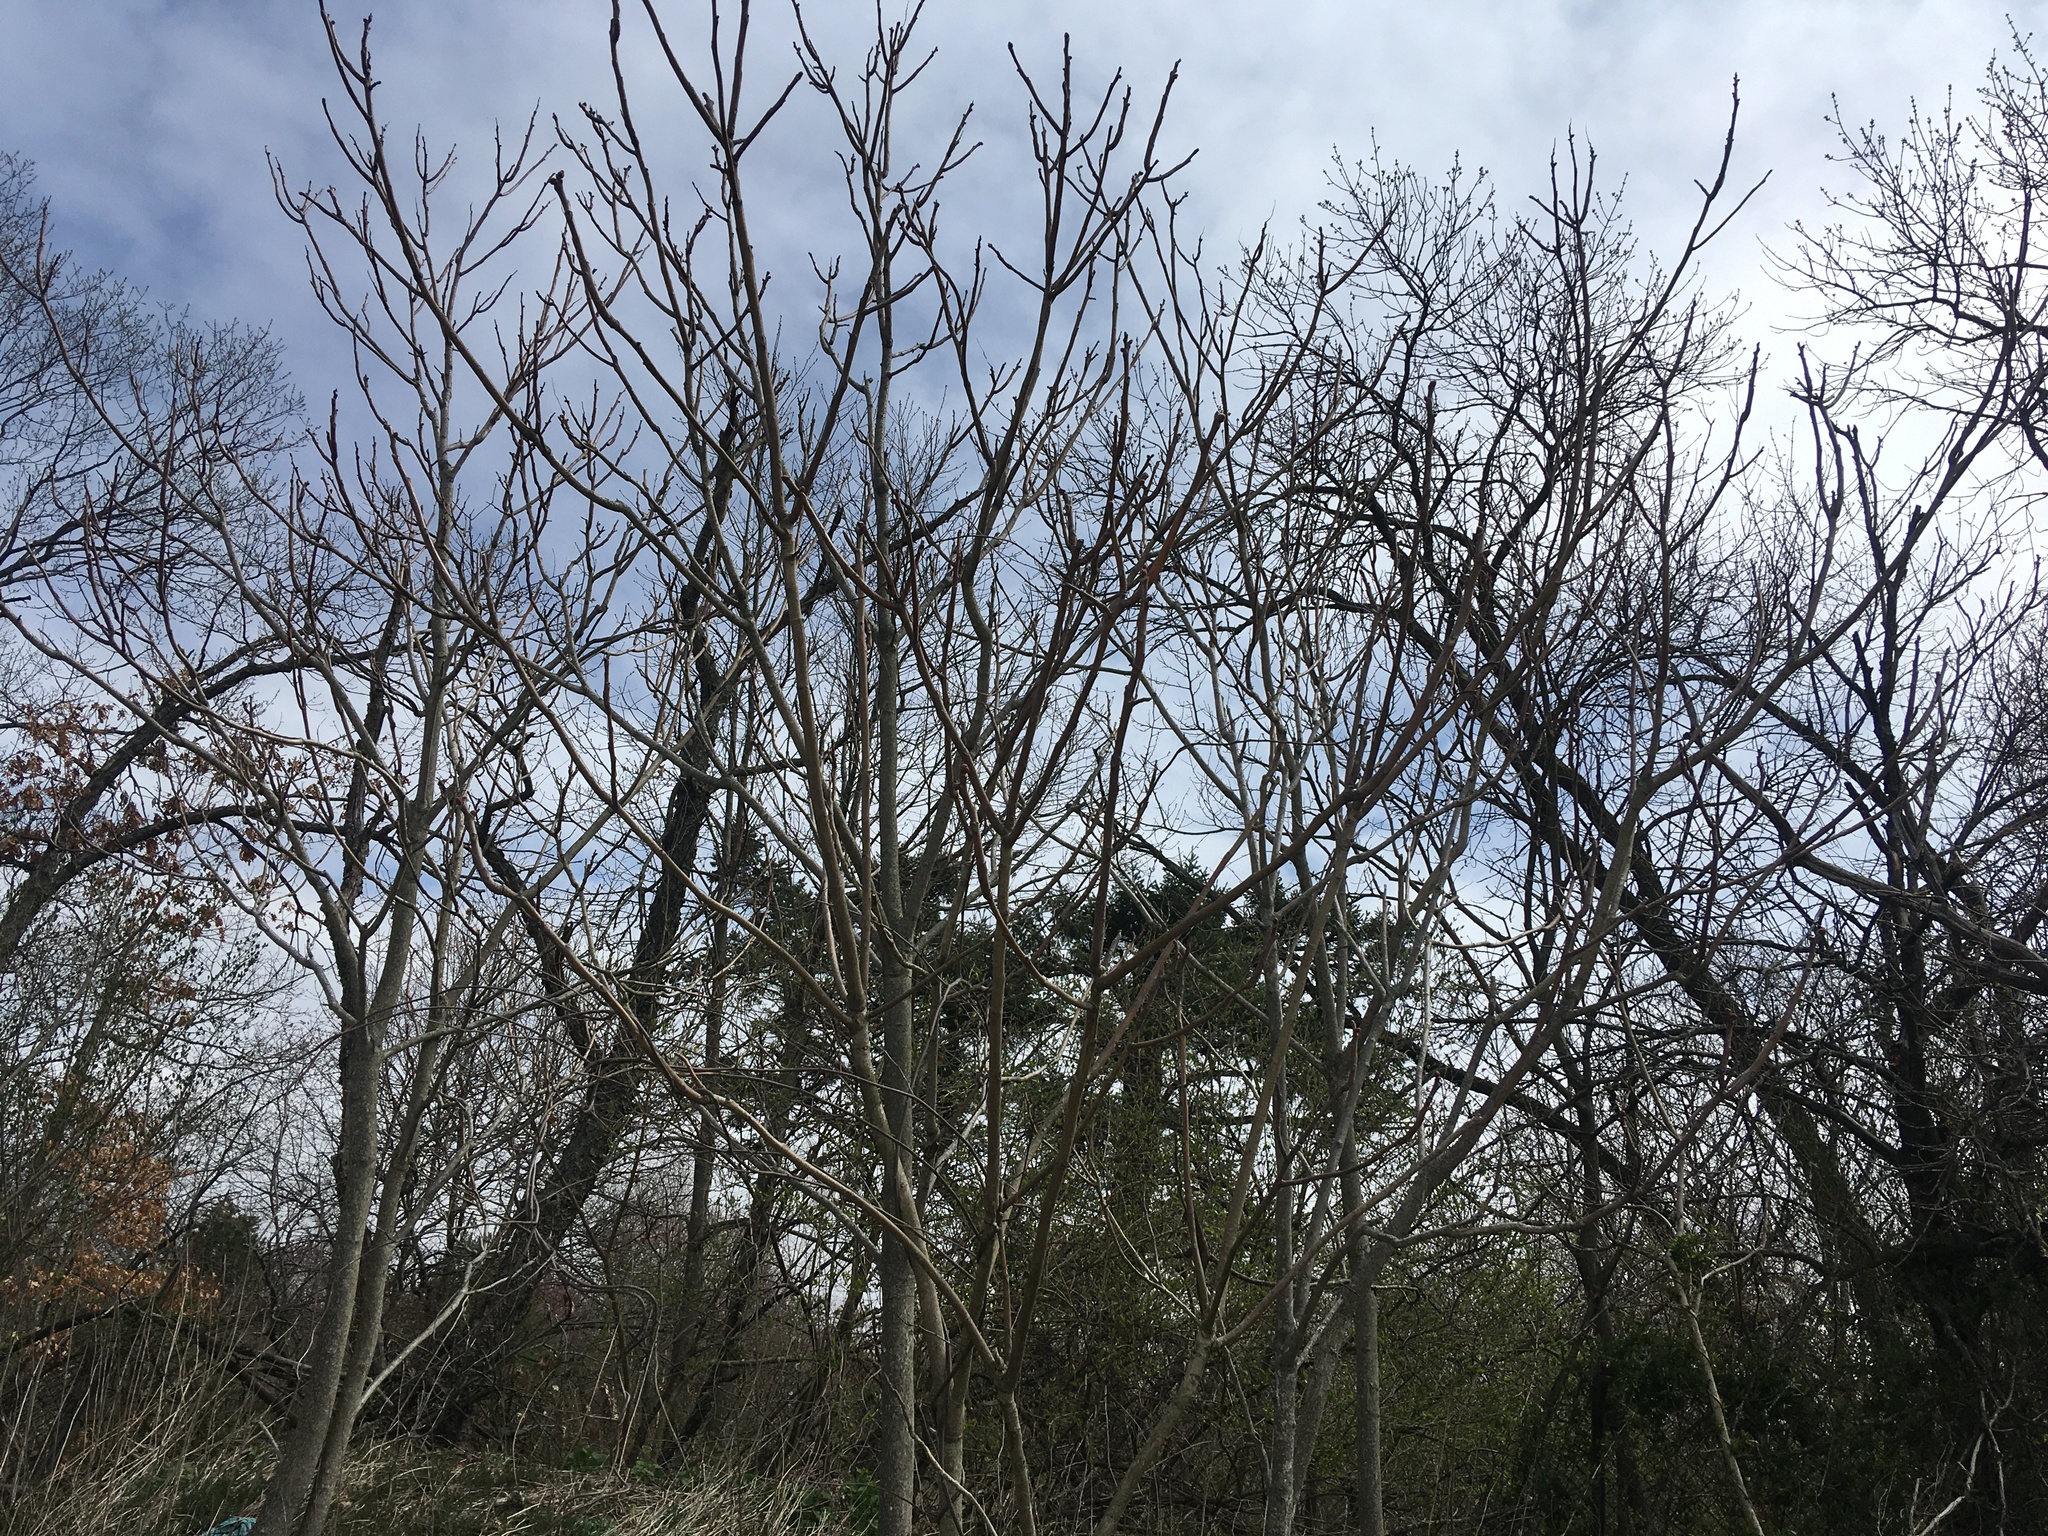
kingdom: Plantae
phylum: Tracheophyta
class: Magnoliopsida
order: Sapindales
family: Simaroubaceae
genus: Ailanthus
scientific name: Ailanthus altissima
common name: Tree-of-heaven
